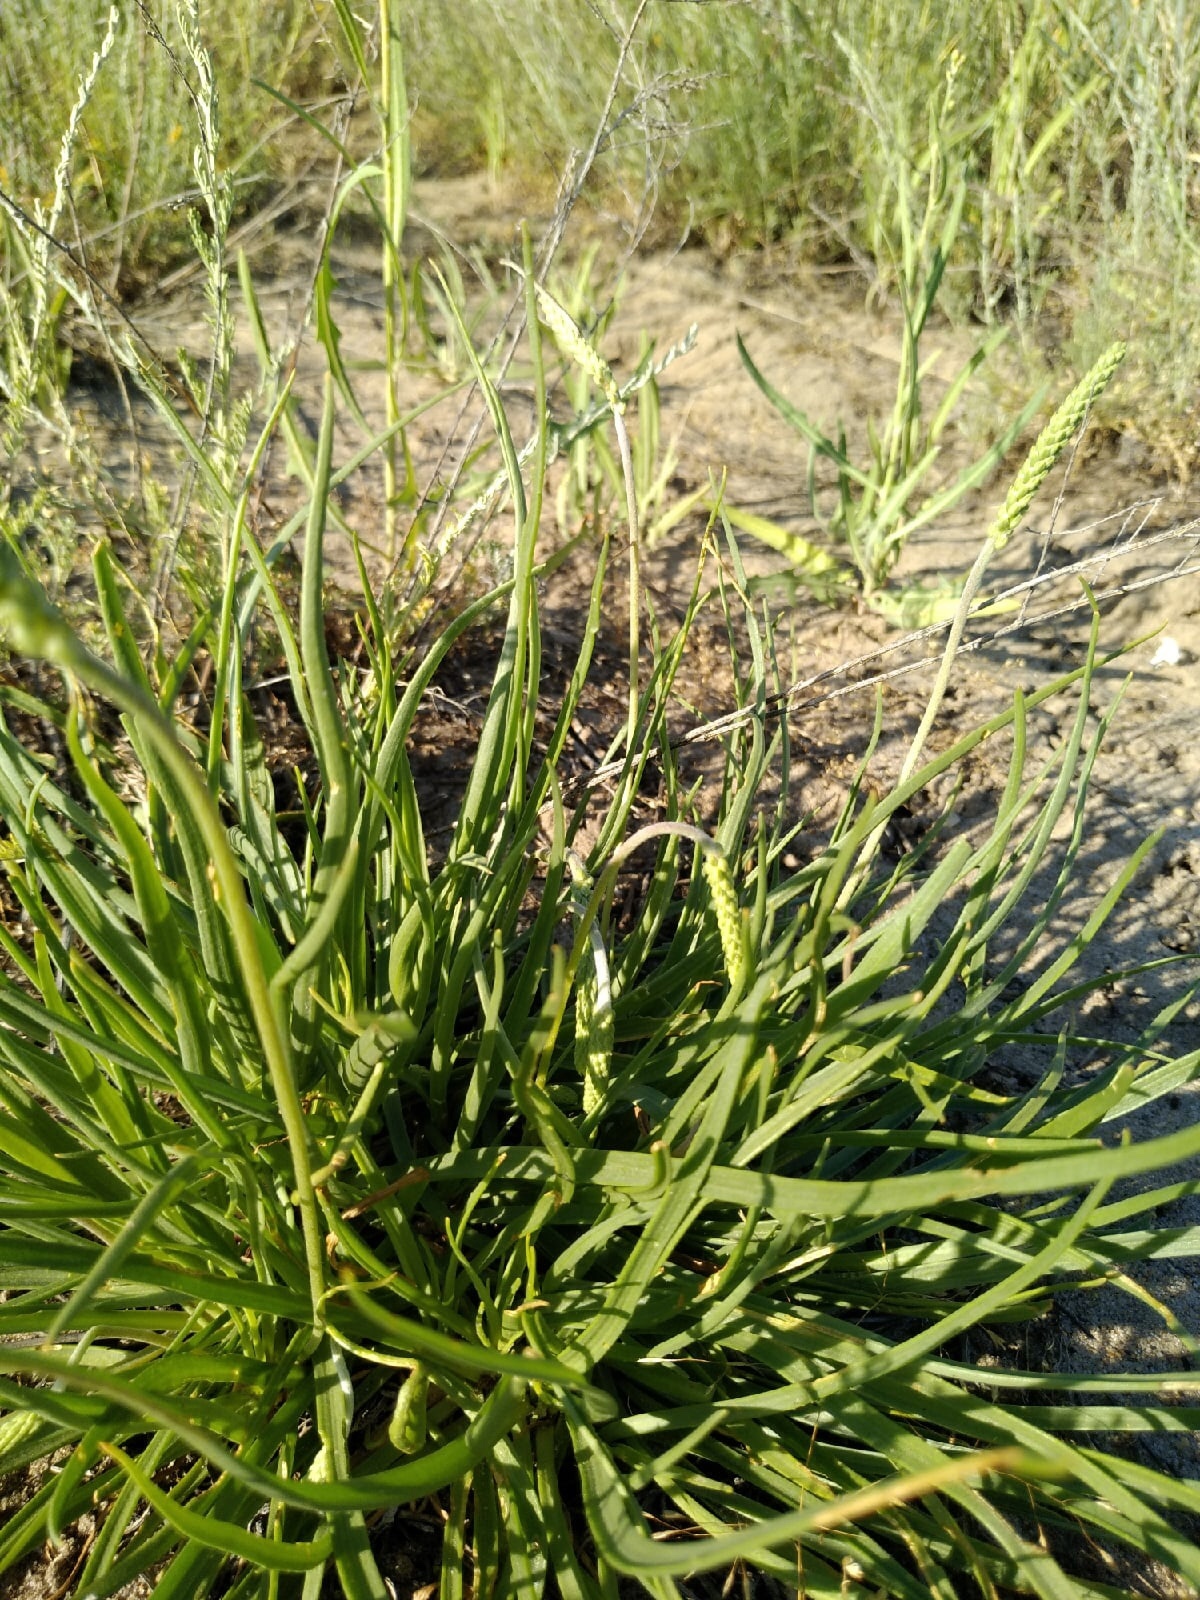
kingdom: Plantae
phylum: Tracheophyta
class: Magnoliopsida
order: Lamiales
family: Plantaginaceae
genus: Plantago
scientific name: Plantago salsa
